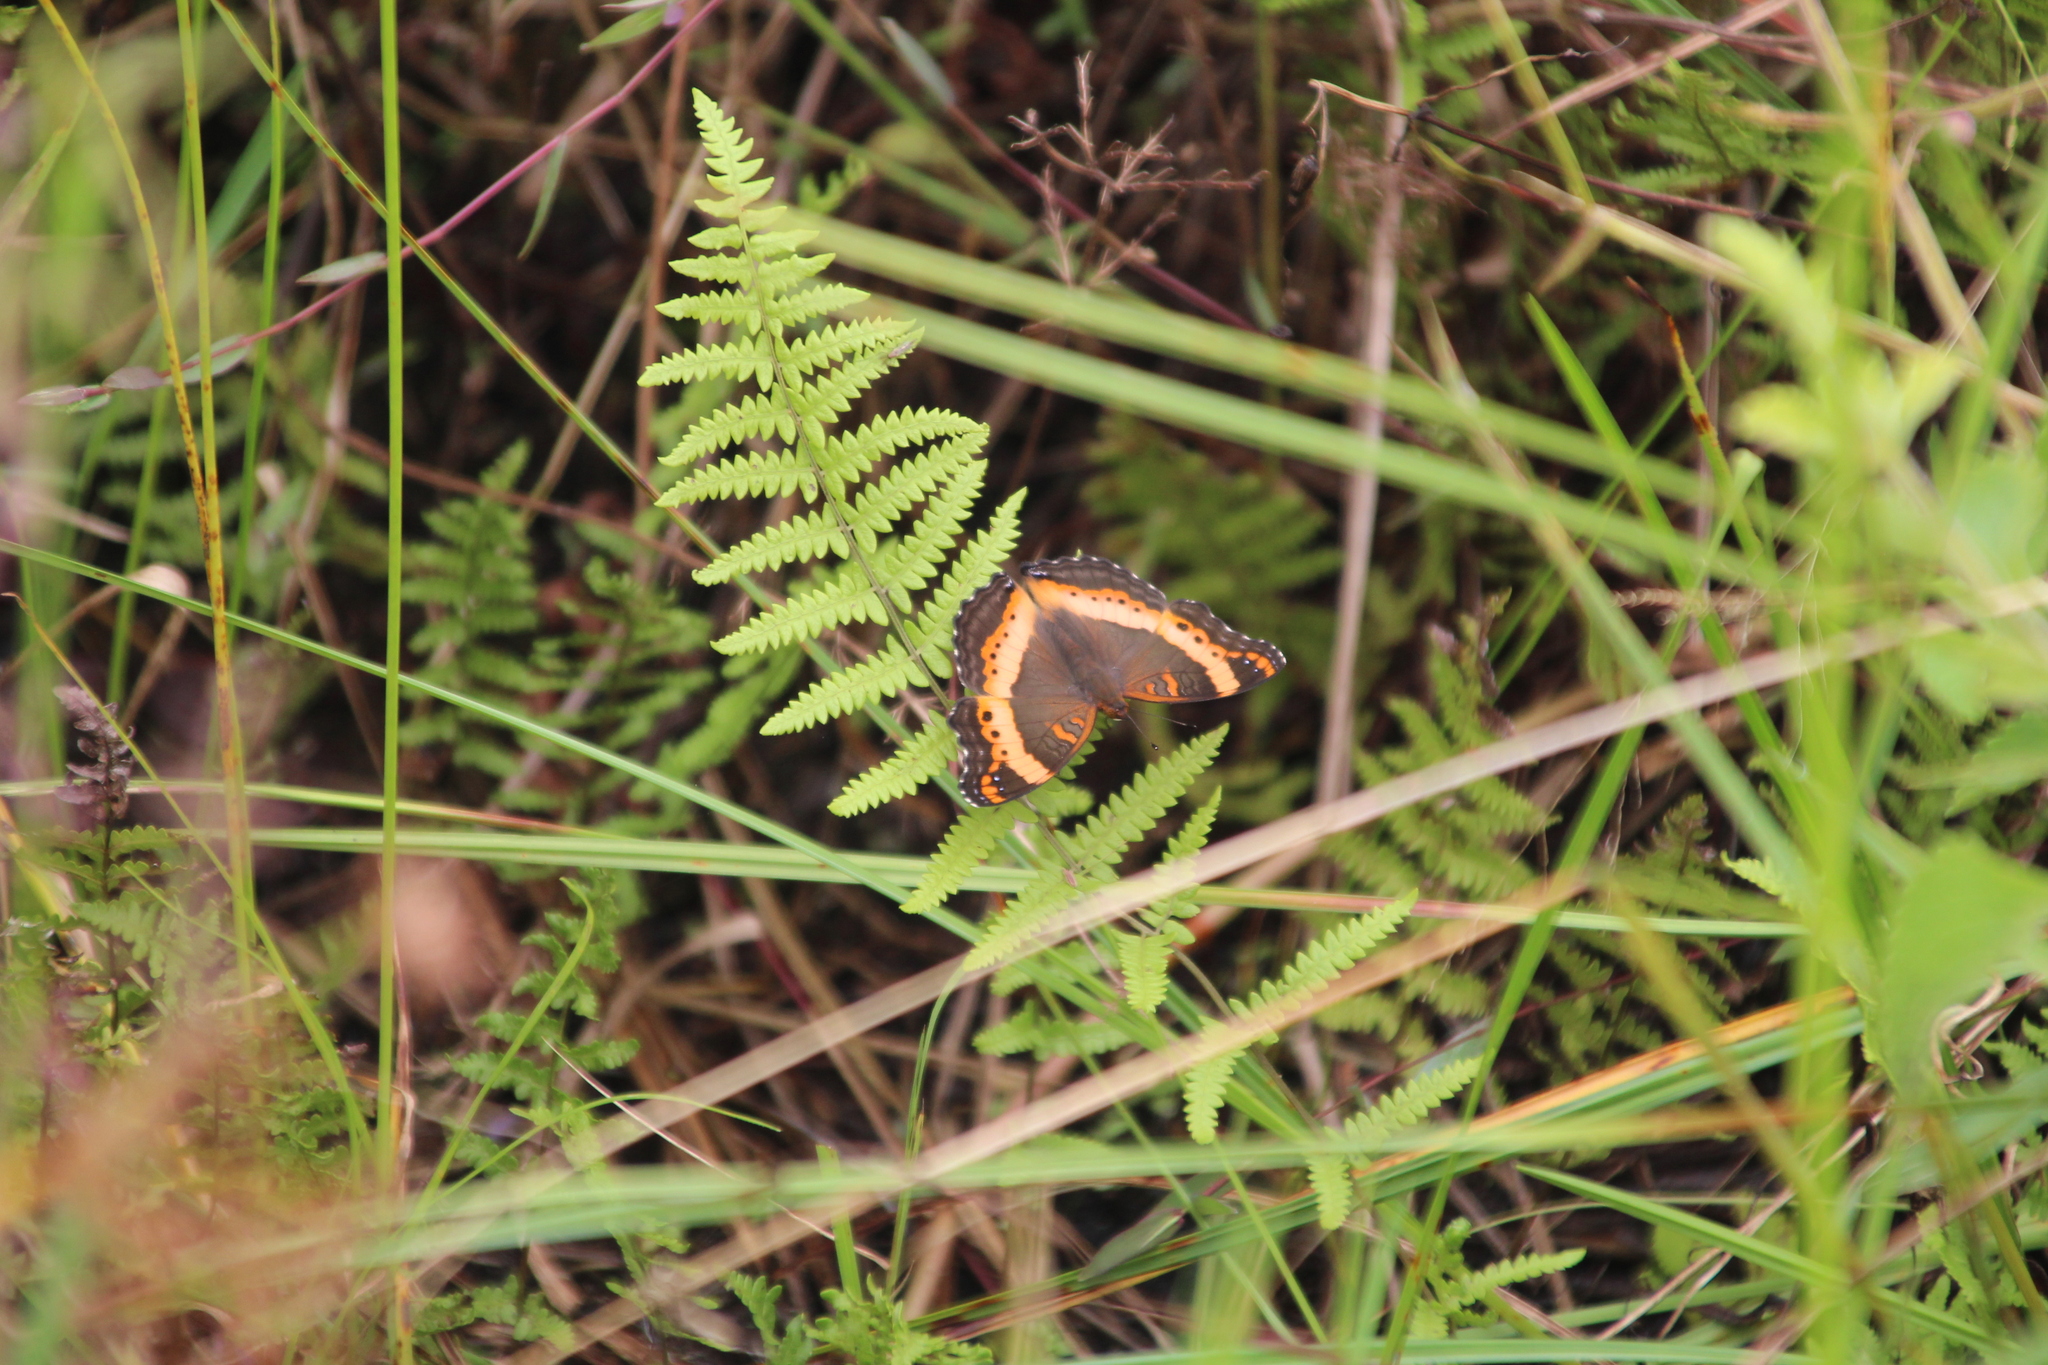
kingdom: Animalia
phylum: Arthropoda
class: Insecta
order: Lepidoptera
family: Nymphalidae
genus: Junonia
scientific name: Junonia archesia
